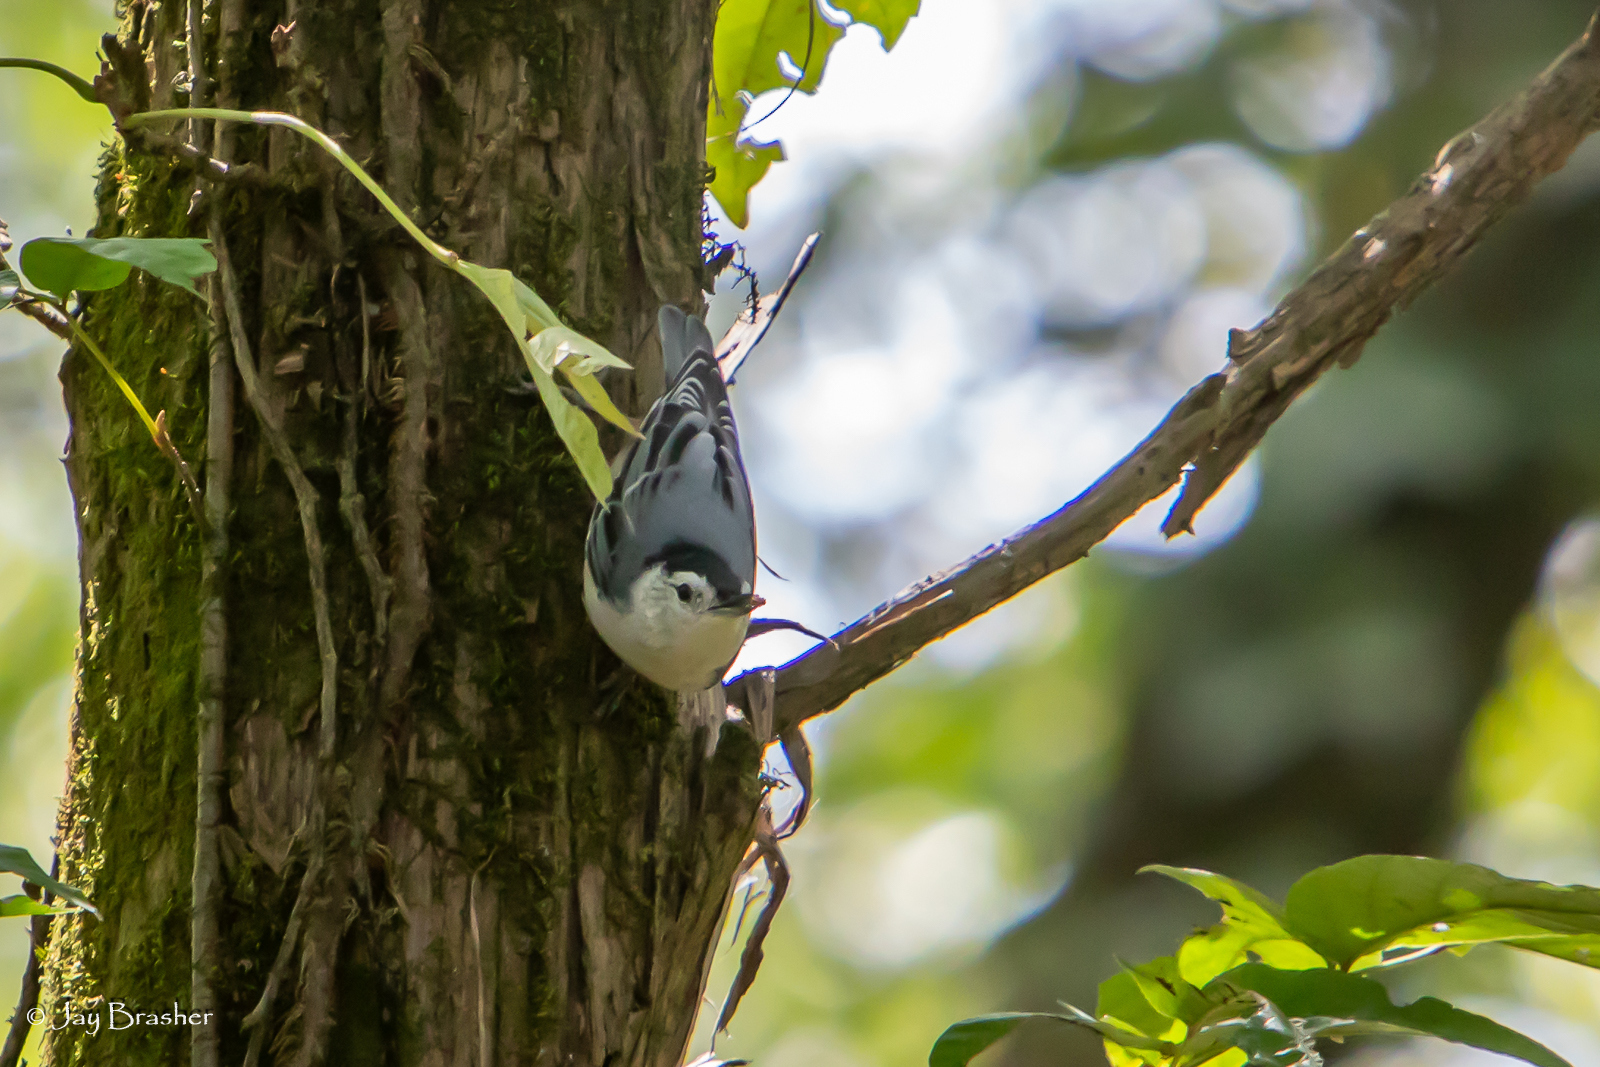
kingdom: Animalia
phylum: Chordata
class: Aves
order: Passeriformes
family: Sittidae
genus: Sitta
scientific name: Sitta carolinensis
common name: White-breasted nuthatch
